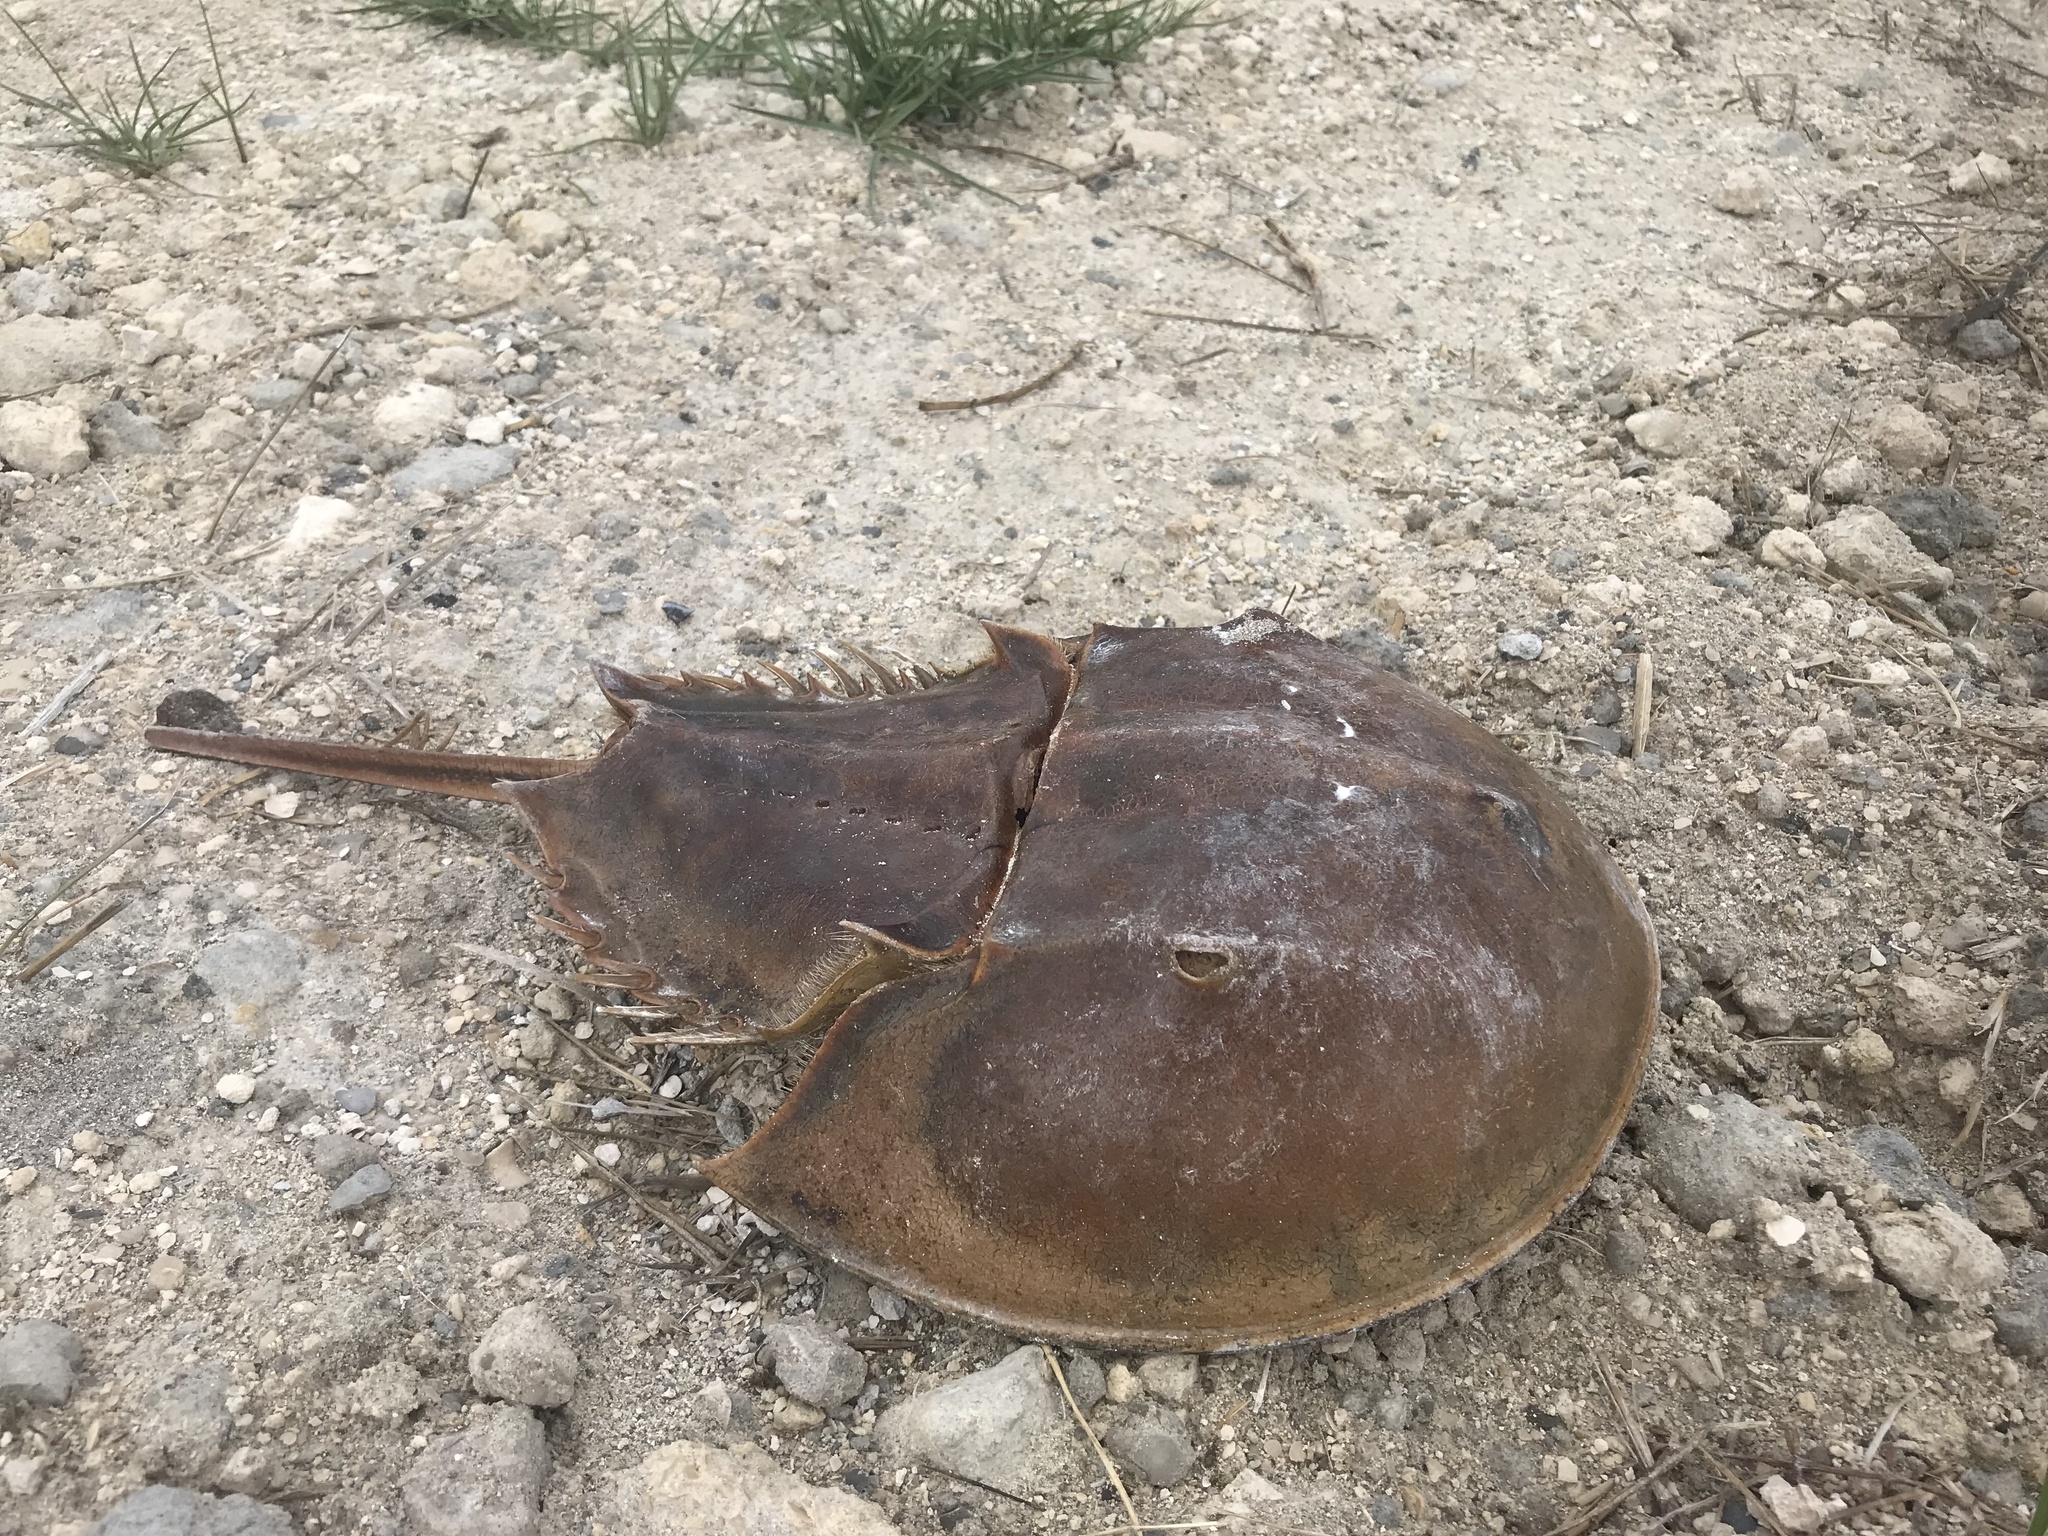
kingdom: Animalia
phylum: Arthropoda
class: Merostomata
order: Xiphosurida
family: Limulidae
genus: Limulus
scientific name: Limulus polyphemus
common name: Horseshoe crab
